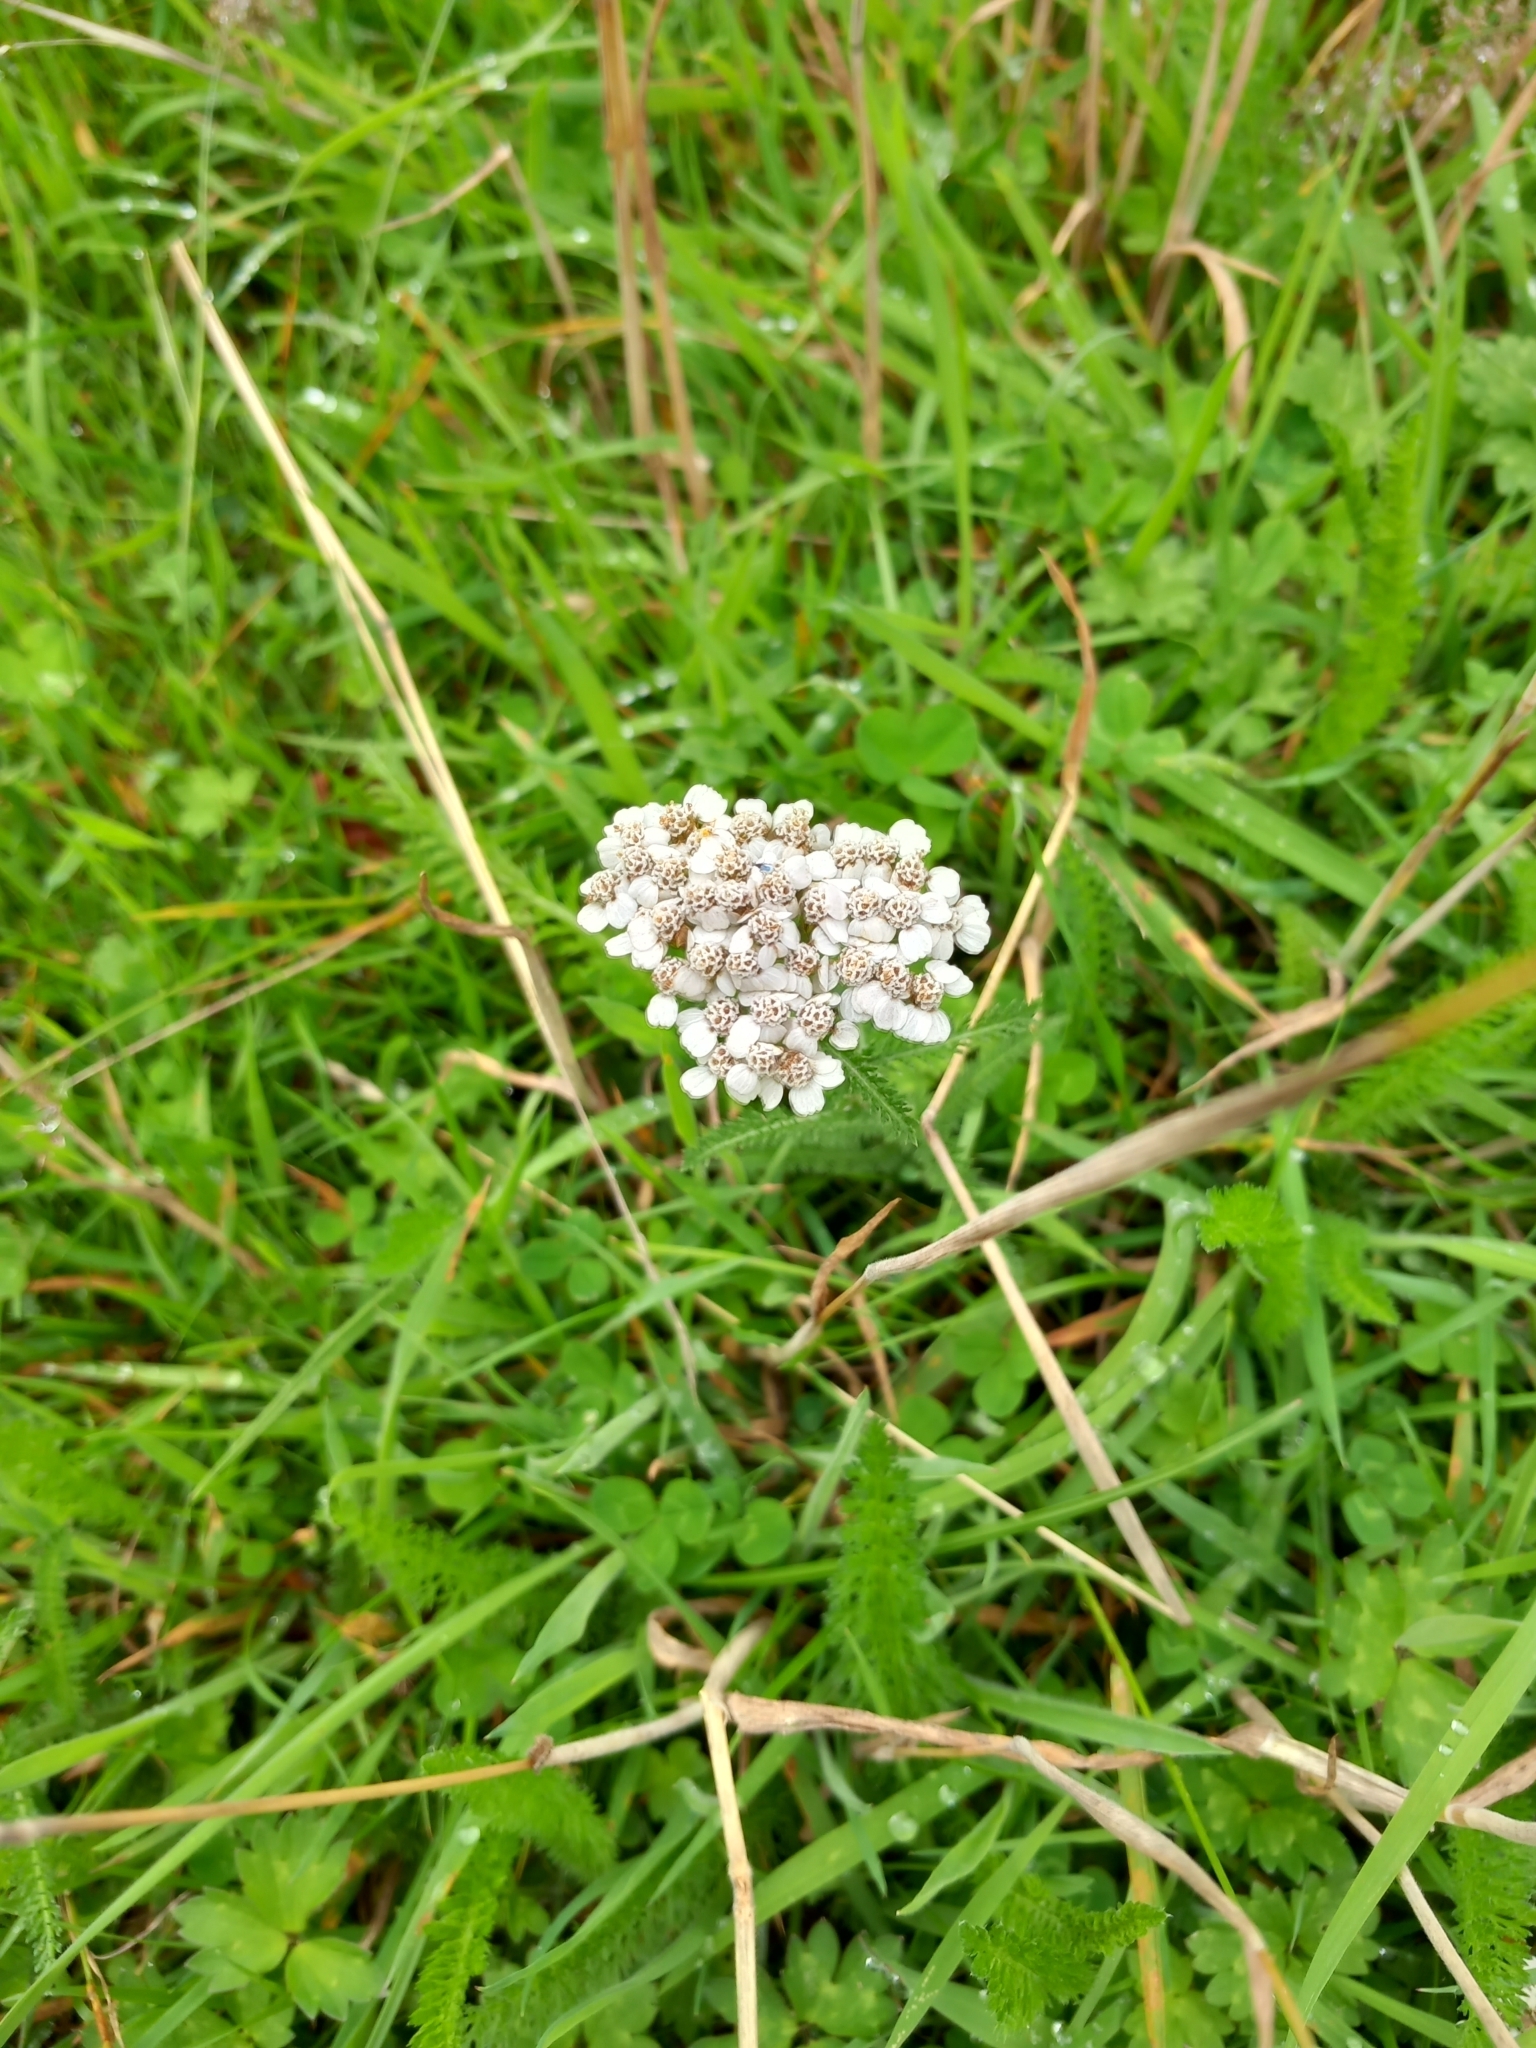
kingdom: Plantae
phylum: Tracheophyta
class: Magnoliopsida
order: Asterales
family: Asteraceae
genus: Achillea
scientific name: Achillea millefolium
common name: Yarrow
